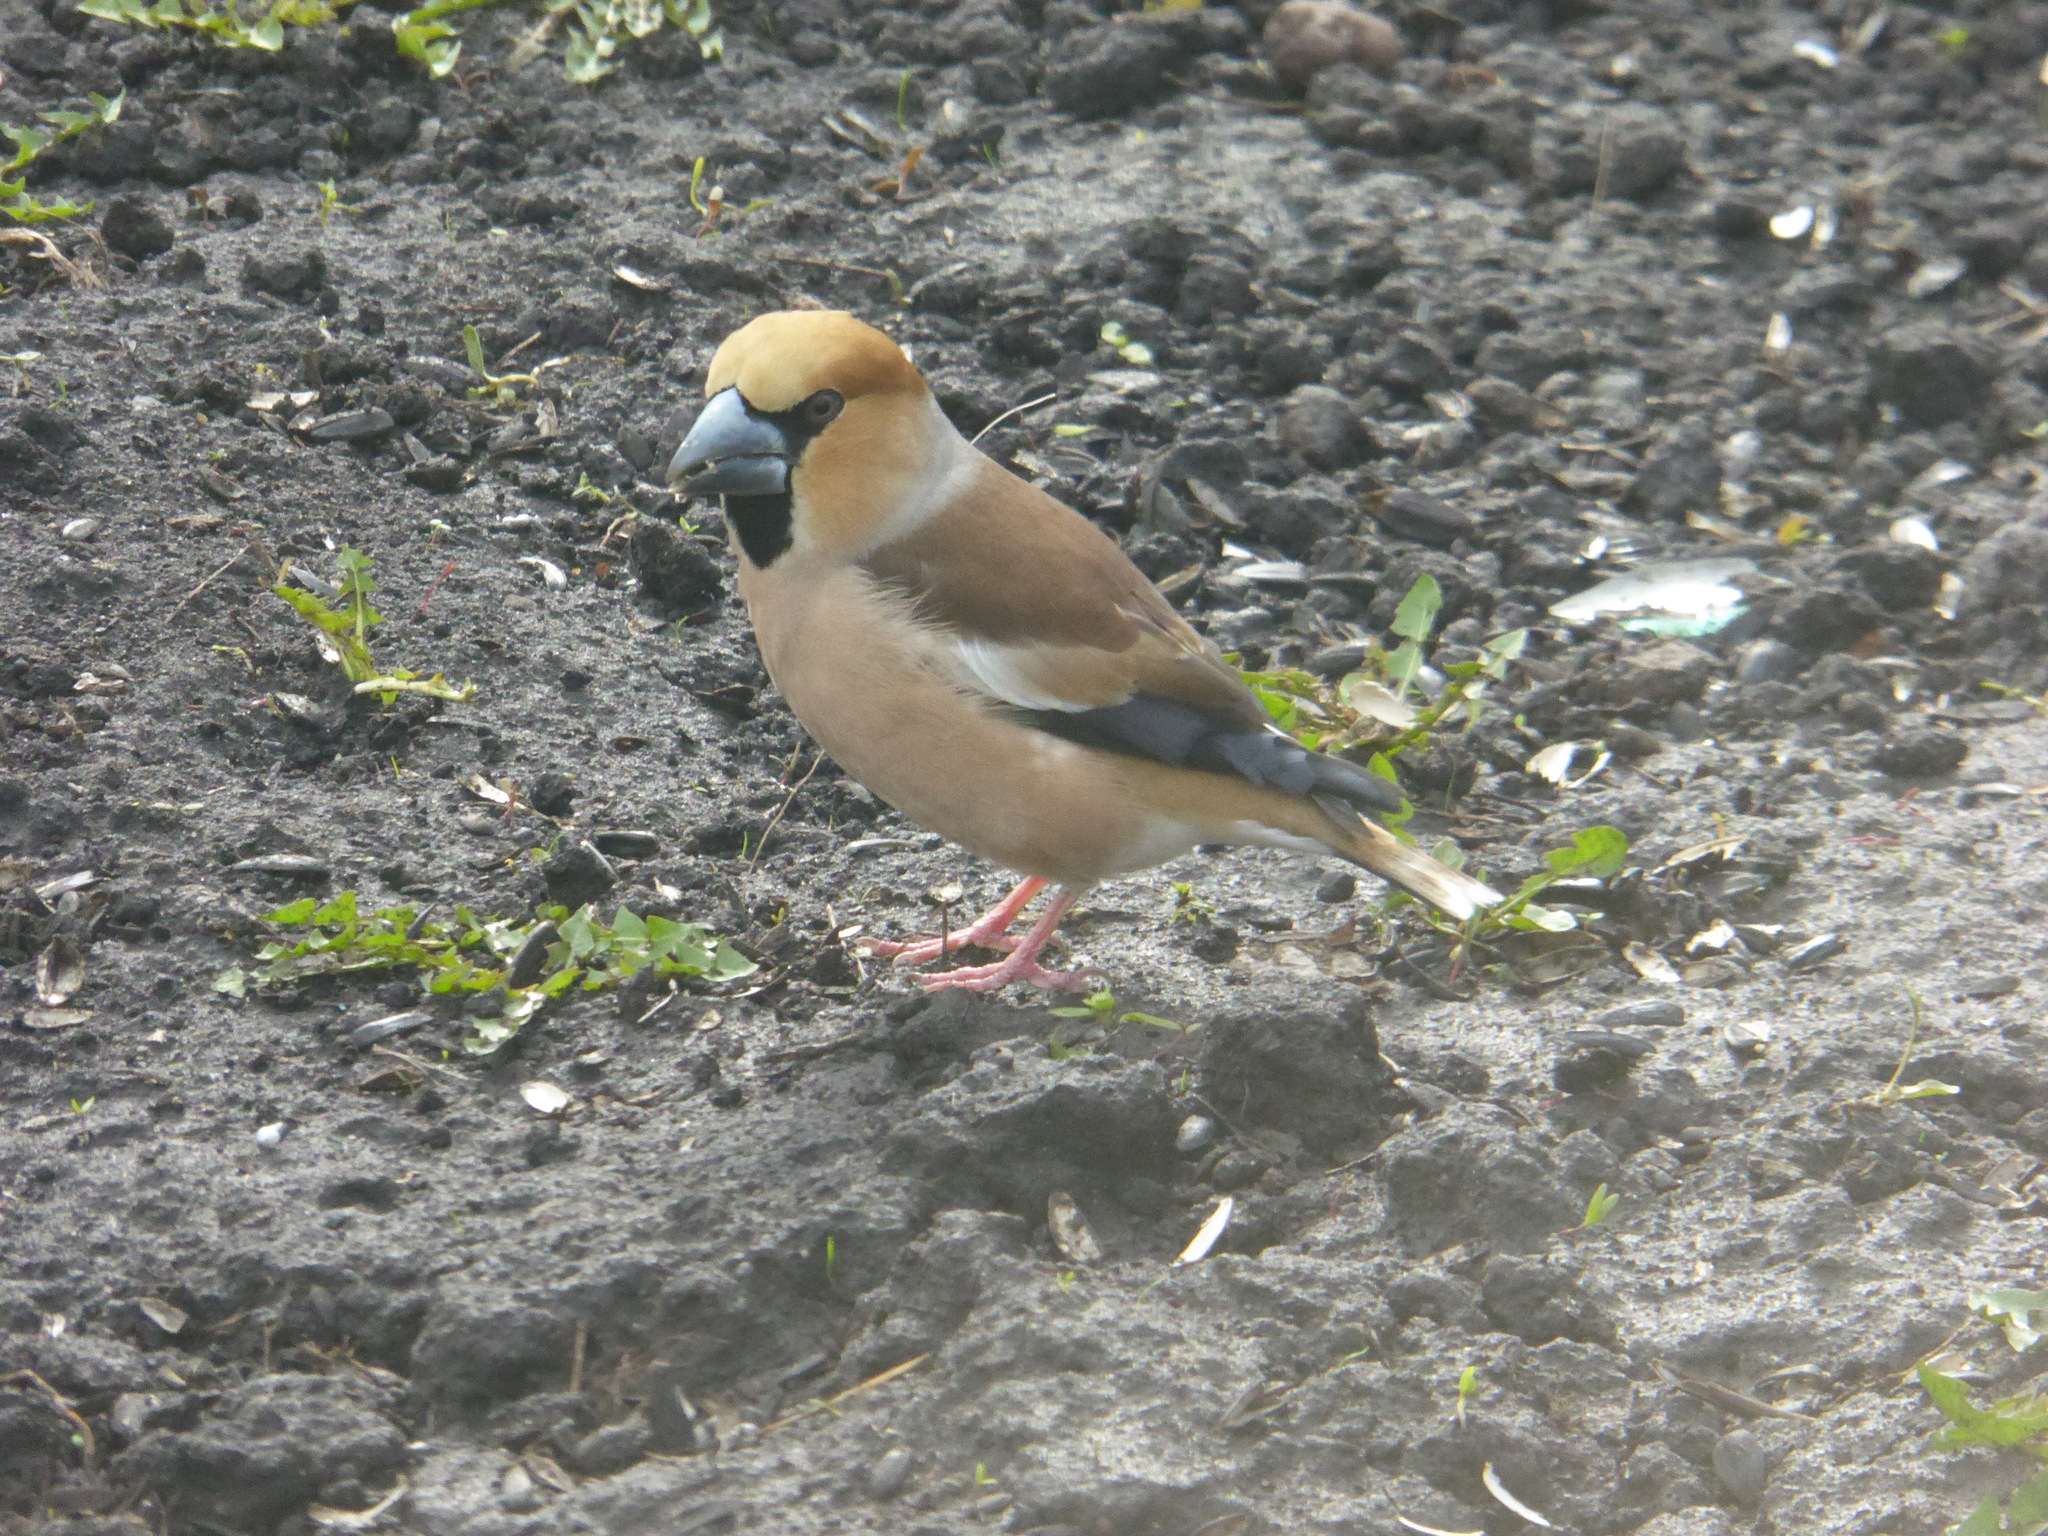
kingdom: Animalia
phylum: Chordata
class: Aves
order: Passeriformes
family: Fringillidae
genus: Coccothraustes
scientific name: Coccothraustes coccothraustes
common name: Hawfinch
